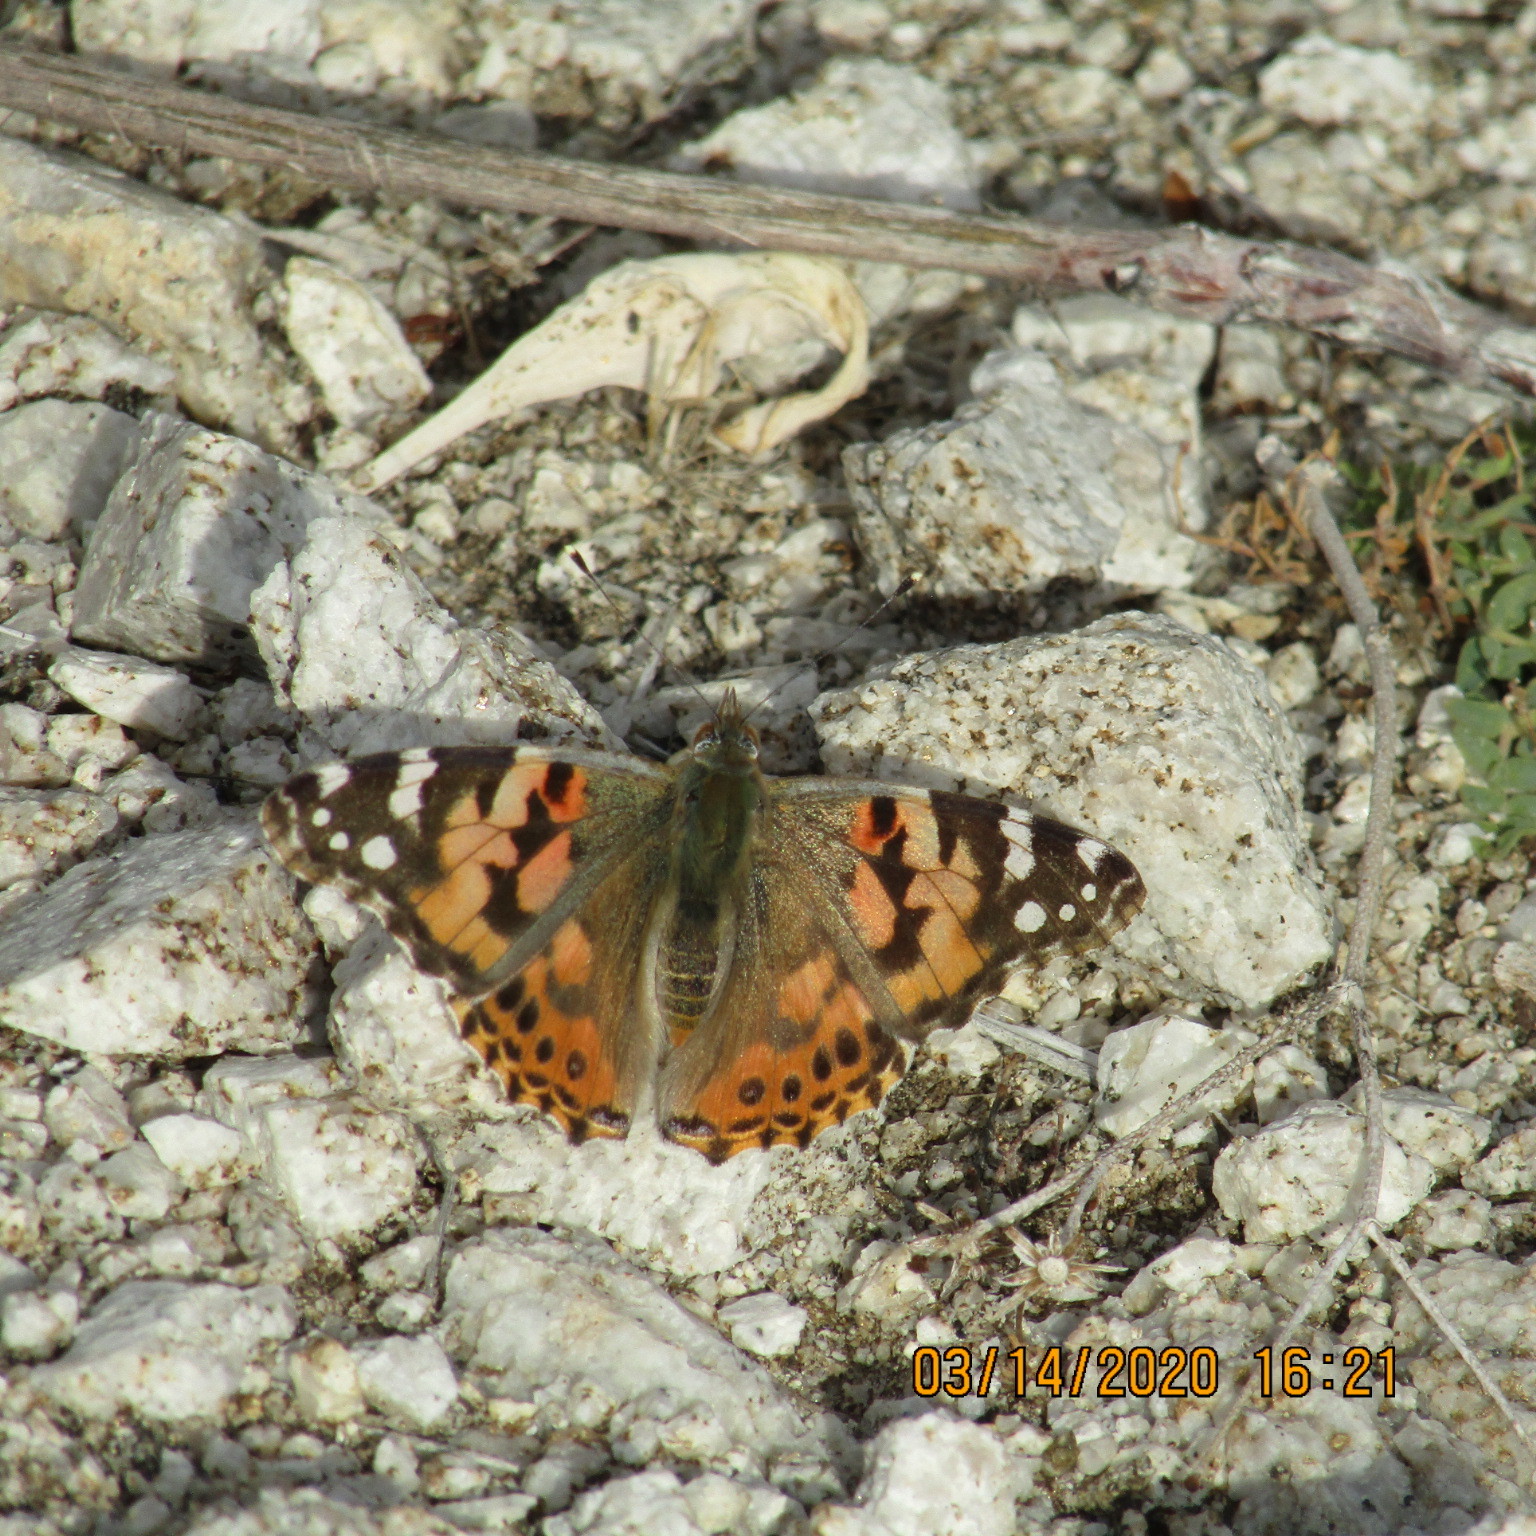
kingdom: Animalia
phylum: Arthropoda
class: Insecta
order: Lepidoptera
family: Nymphalidae
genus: Vanessa
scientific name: Vanessa cardui
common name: Painted lady
